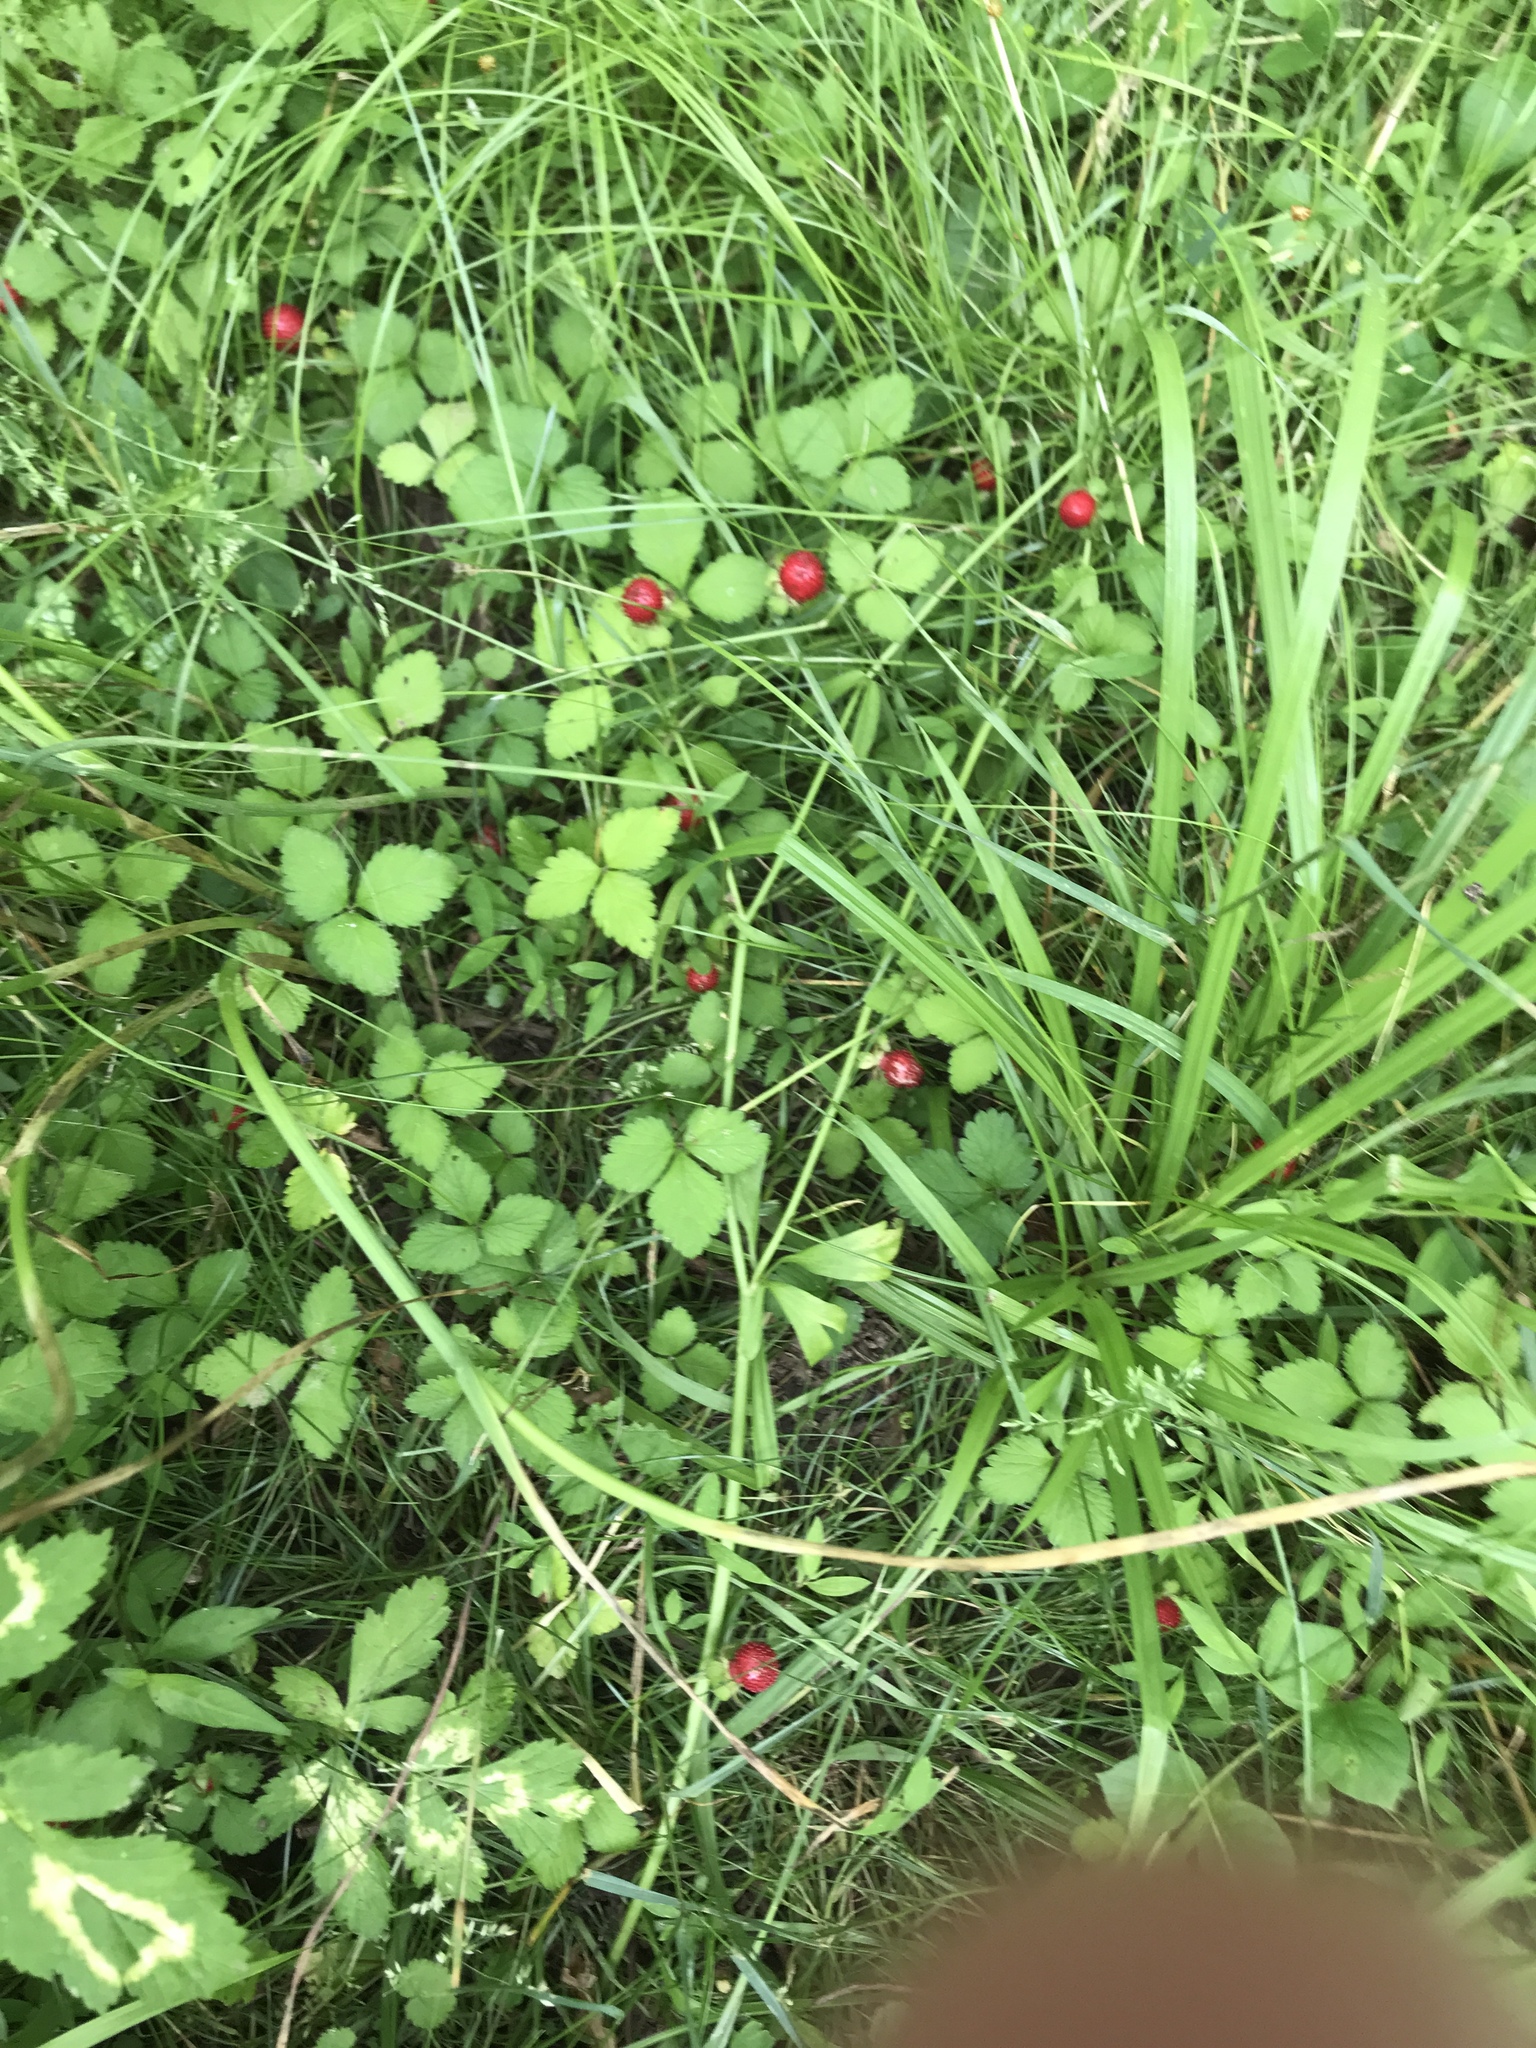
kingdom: Plantae
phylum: Tracheophyta
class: Magnoliopsida
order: Rosales
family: Rosaceae
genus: Potentilla
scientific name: Potentilla indica
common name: Yellow-flowered strawberry
